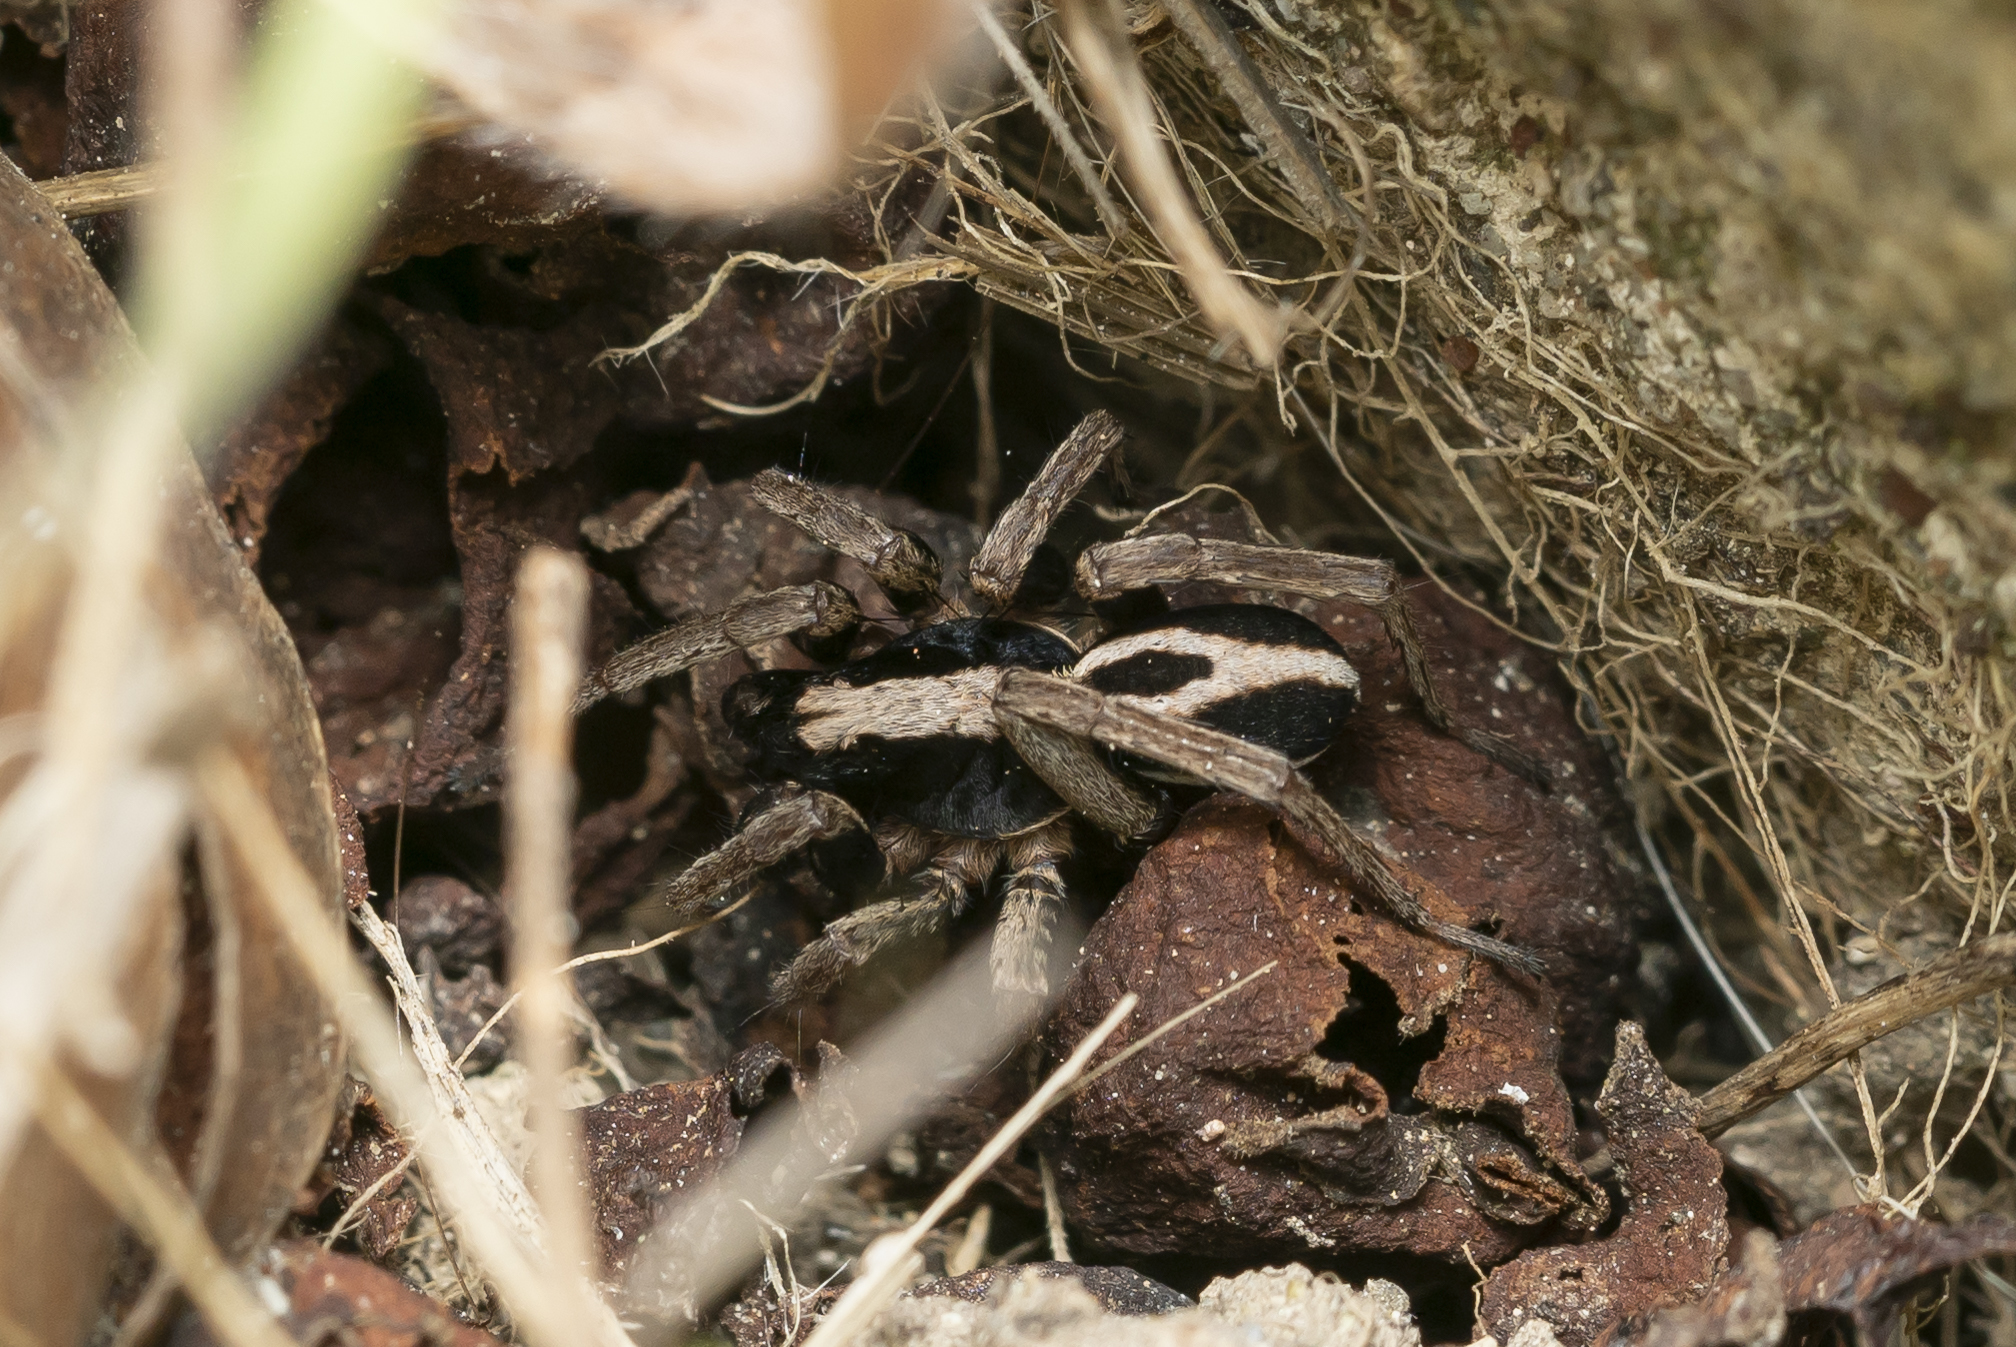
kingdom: Animalia
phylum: Arthropoda
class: Arachnida
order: Araneae
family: Lycosidae
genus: Alopecosa
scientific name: Alopecosa albofasciata
